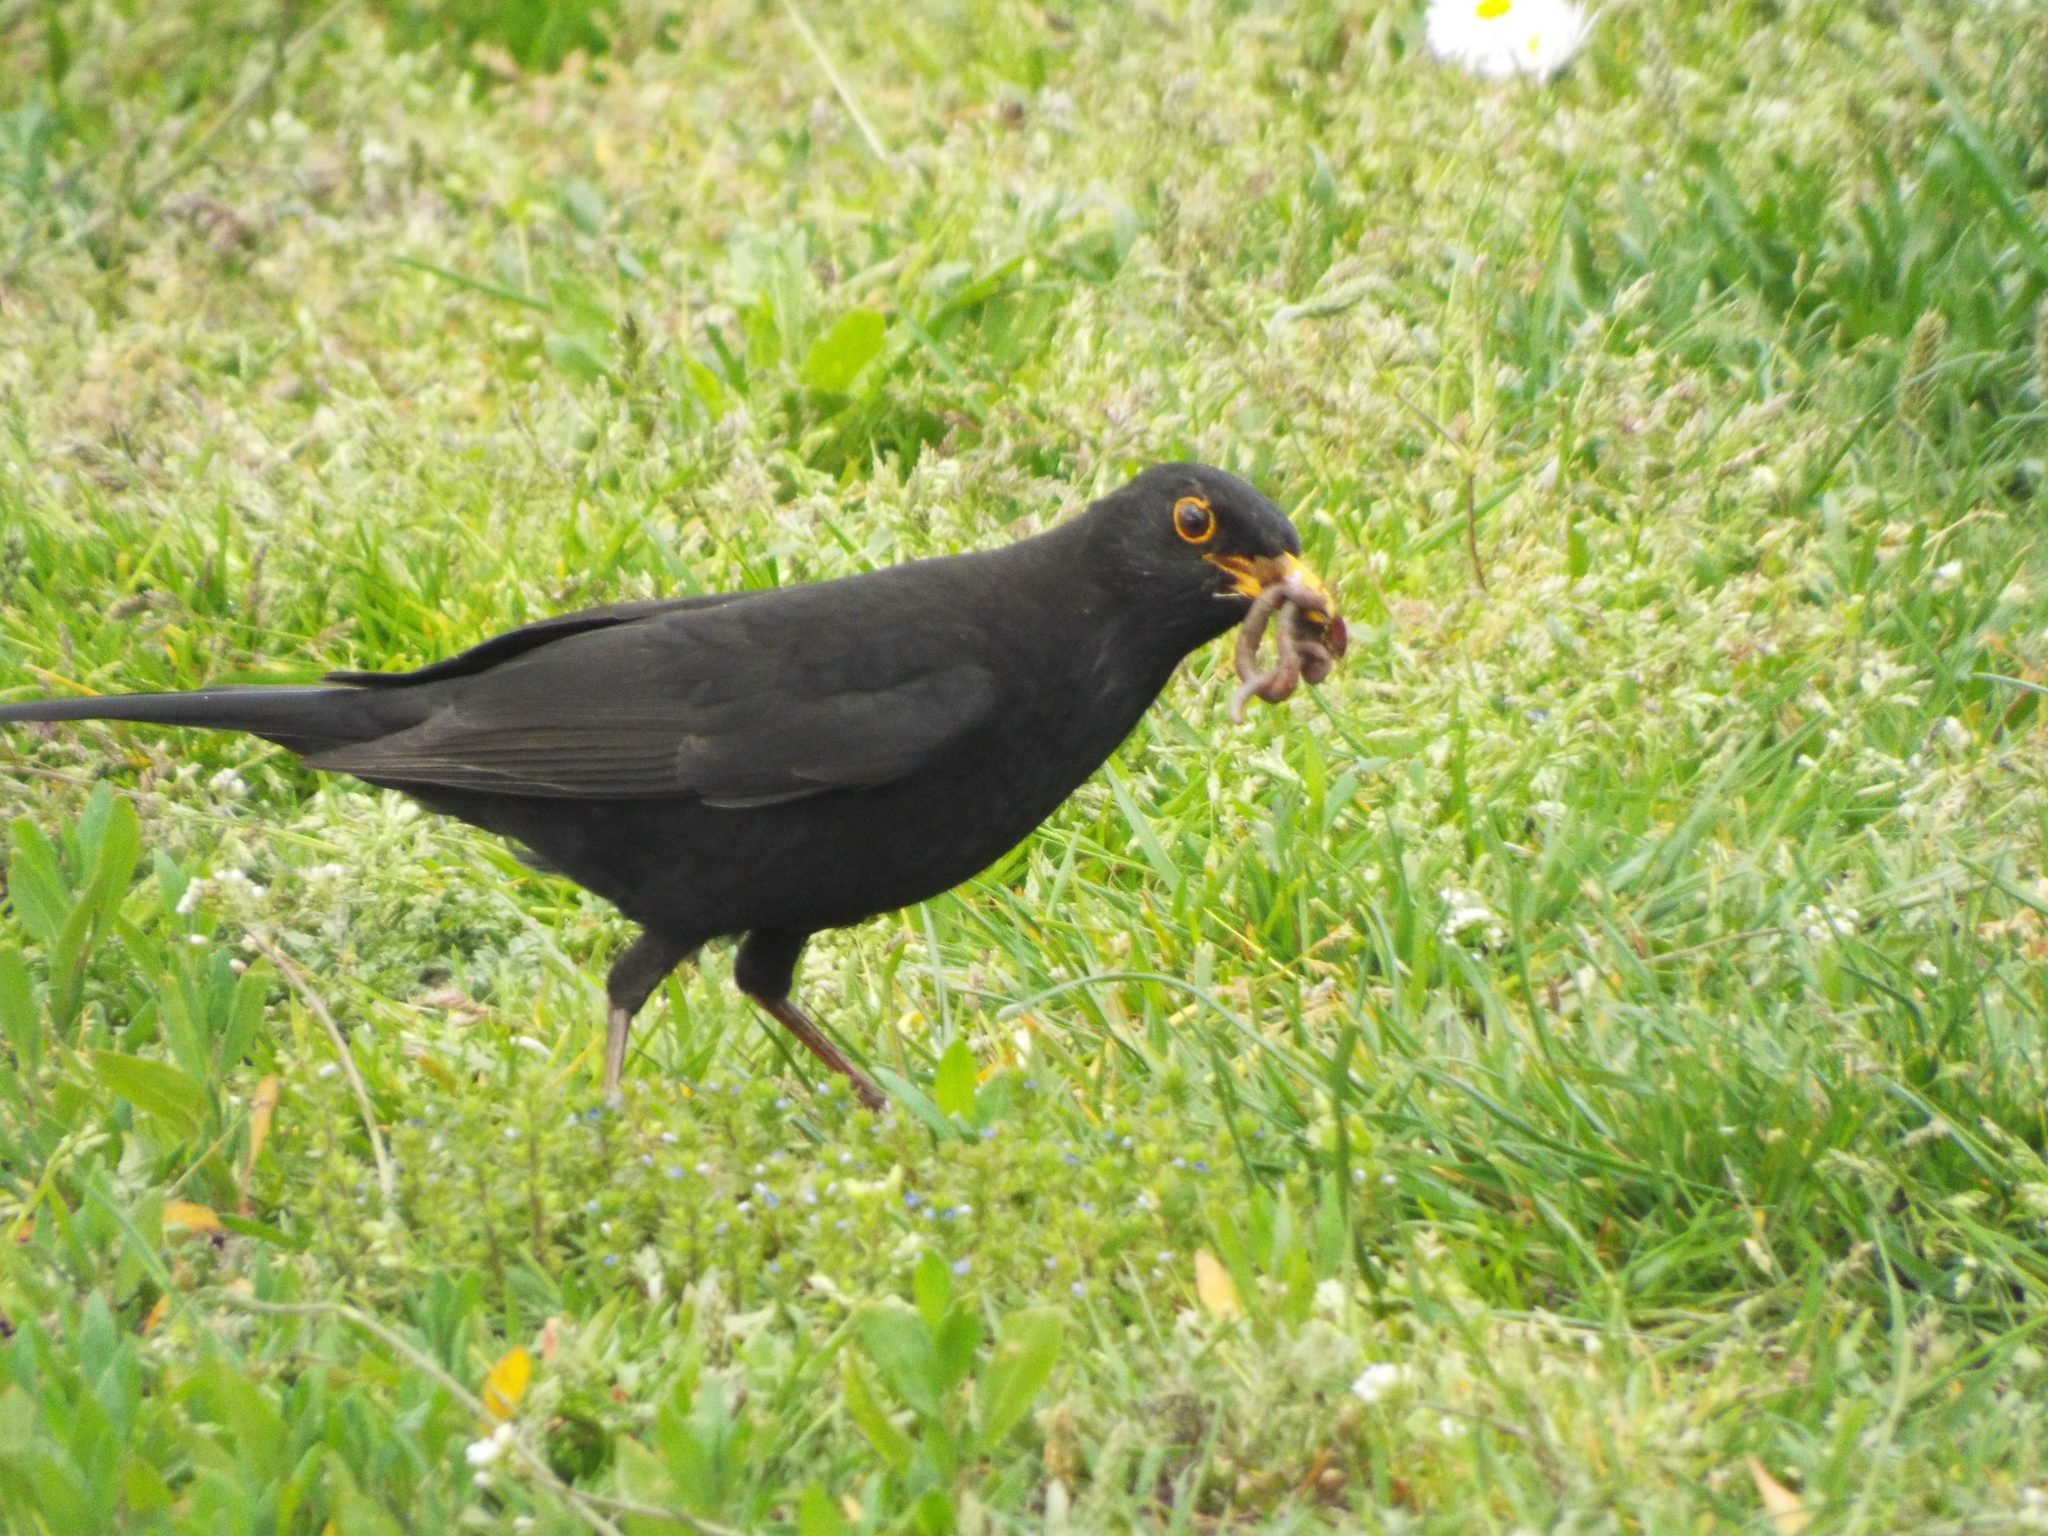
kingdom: Animalia
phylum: Chordata
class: Aves
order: Passeriformes
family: Turdidae
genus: Turdus
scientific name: Turdus merula
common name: Common blackbird
